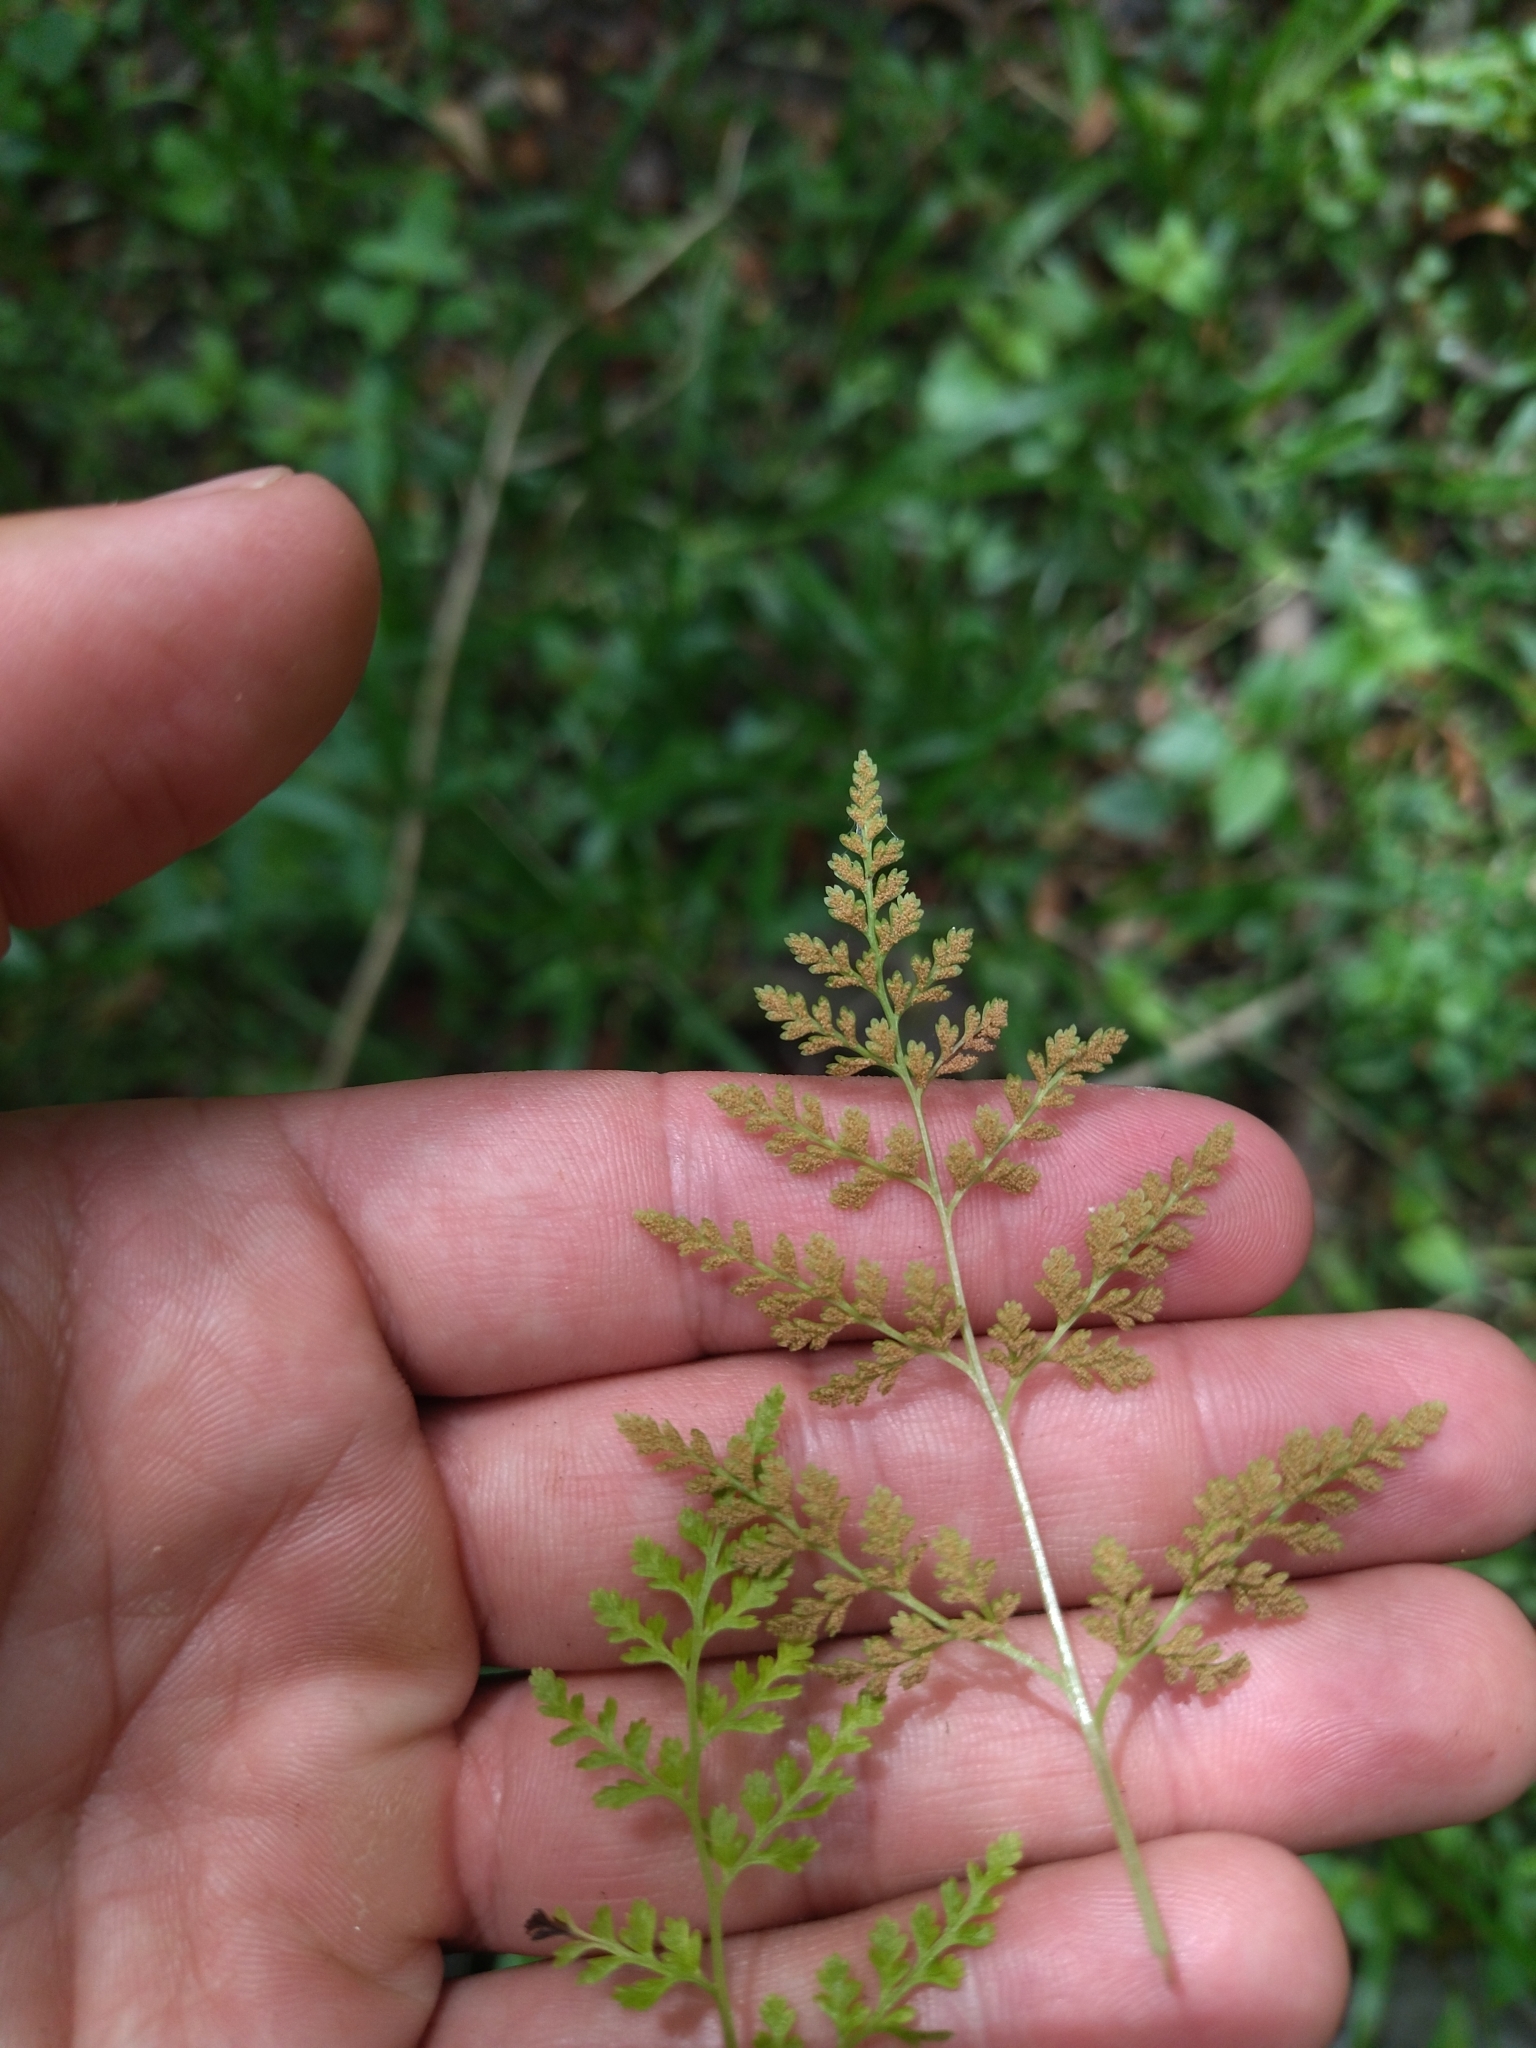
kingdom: Plantae
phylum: Tracheophyta
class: Polypodiopsida
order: Polypodiales
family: Pteridaceae
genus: Gastoniella
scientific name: Gastoniella chaerophylla
